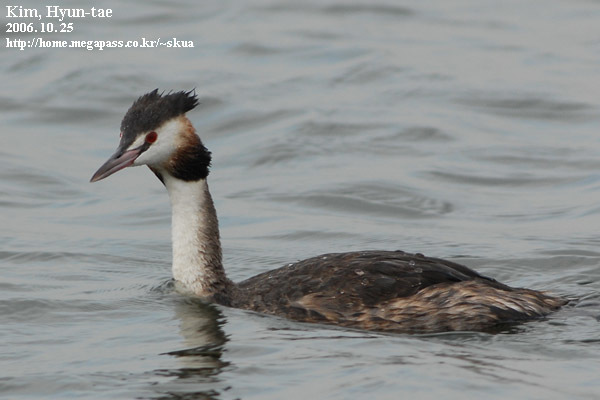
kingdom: Animalia
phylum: Chordata
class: Aves
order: Podicipediformes
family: Podicipedidae
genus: Podiceps
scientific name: Podiceps cristatus
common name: Great crested grebe
